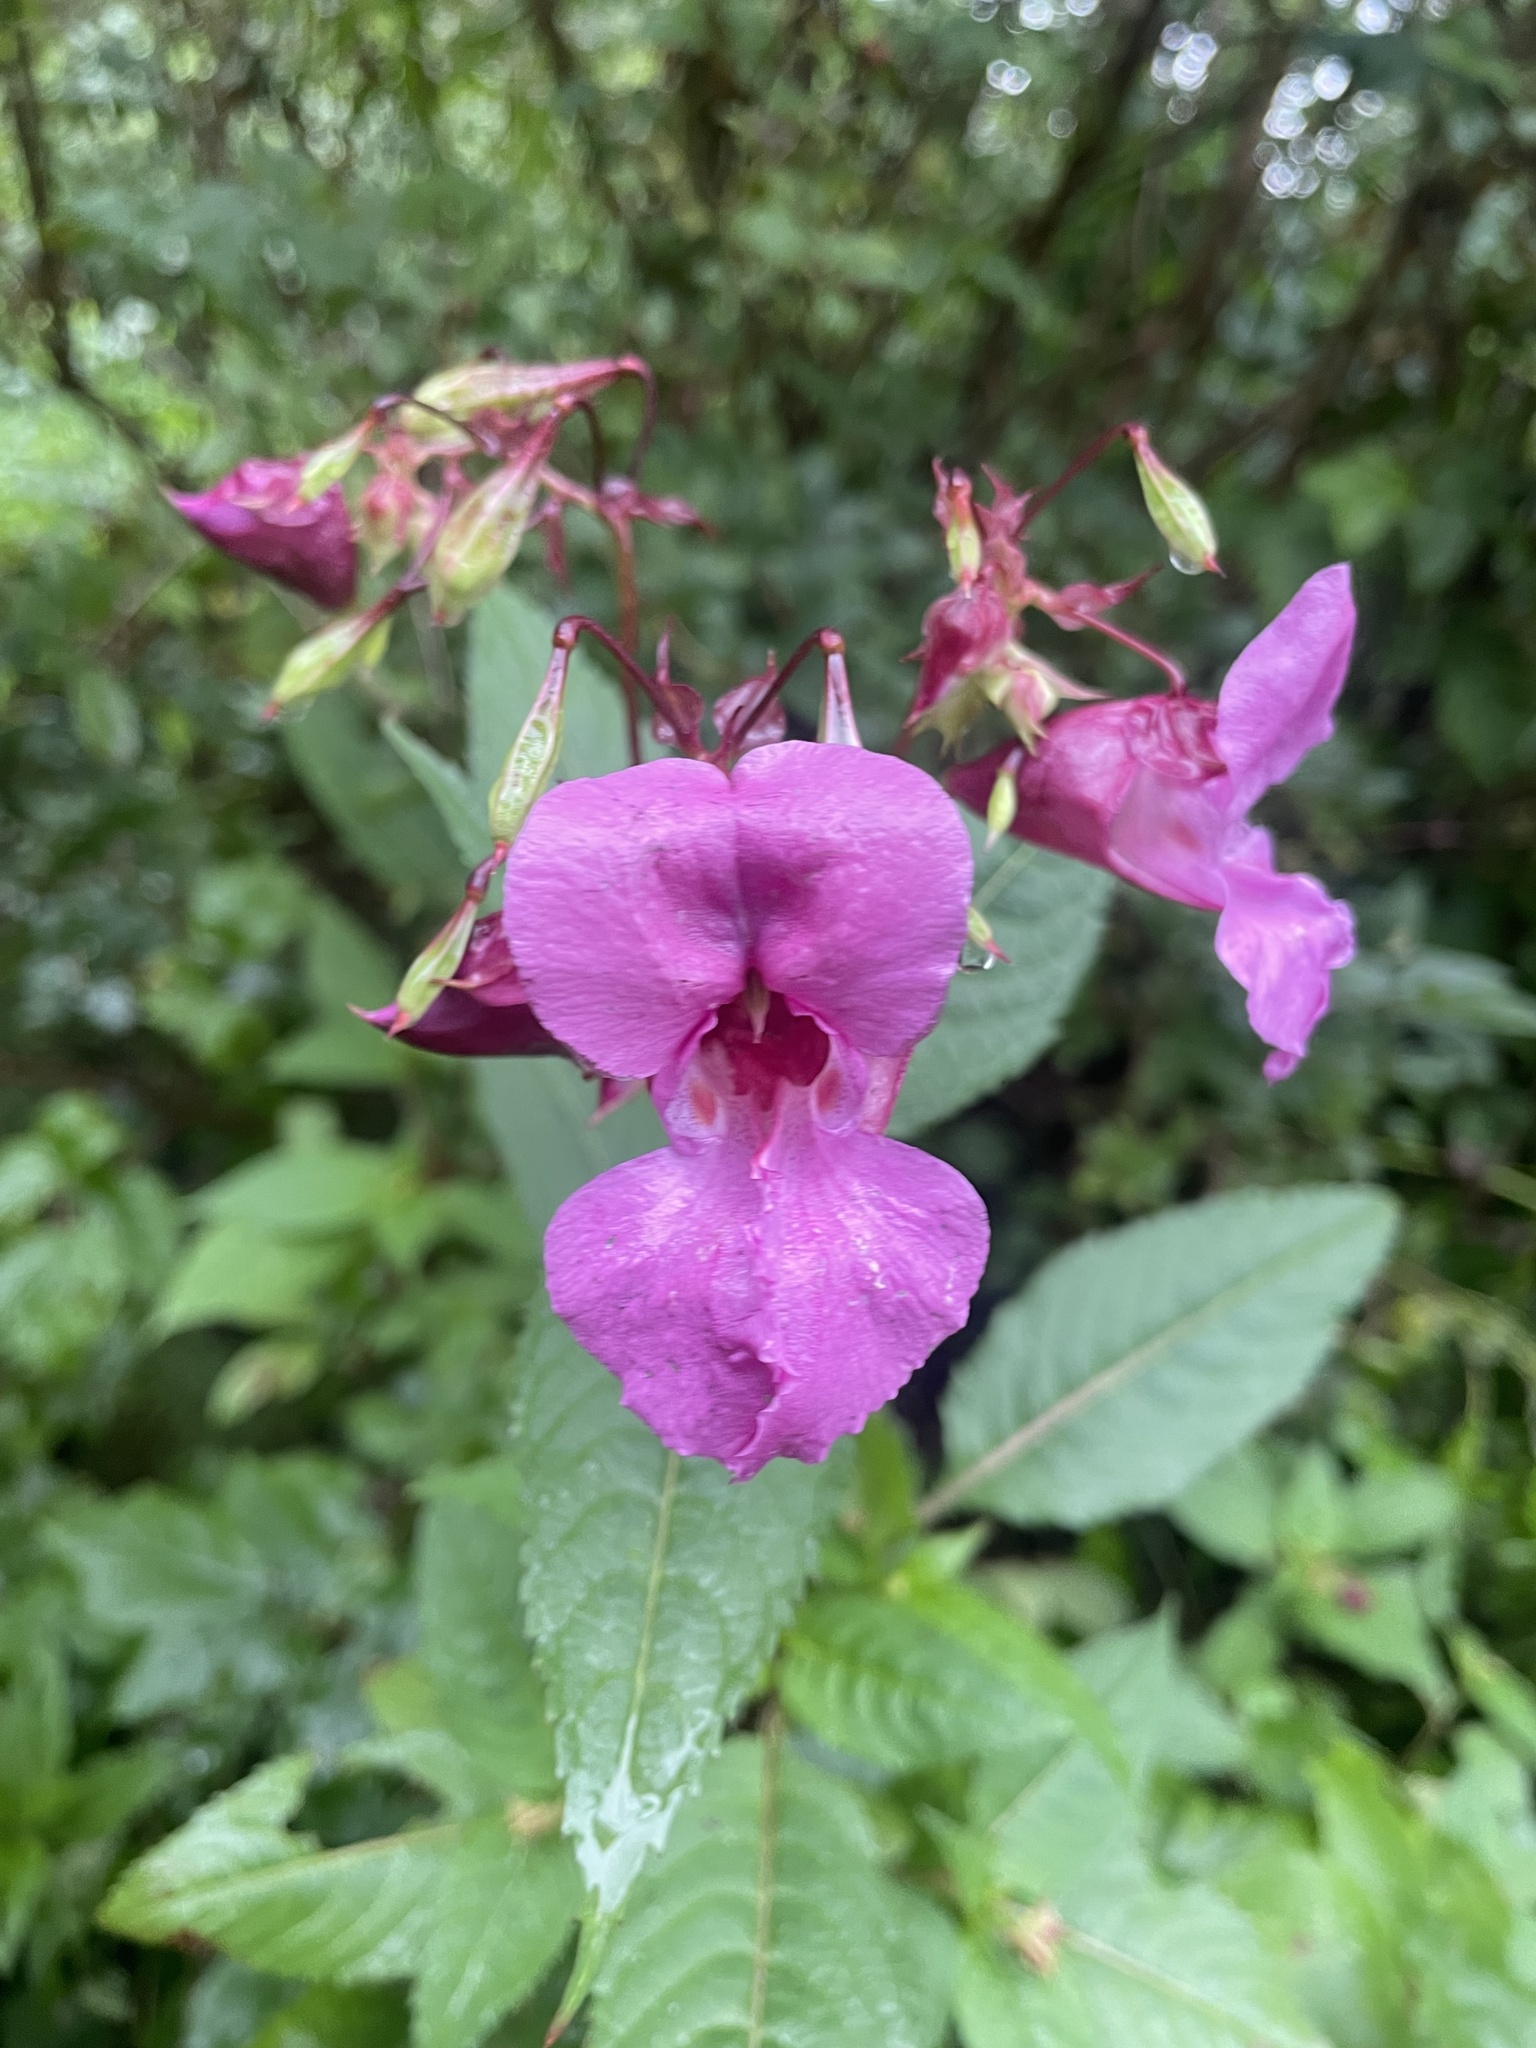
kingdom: Plantae
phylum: Tracheophyta
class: Magnoliopsida
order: Ericales
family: Balsaminaceae
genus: Impatiens
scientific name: Impatiens glandulifera
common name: Himalayan balsam
